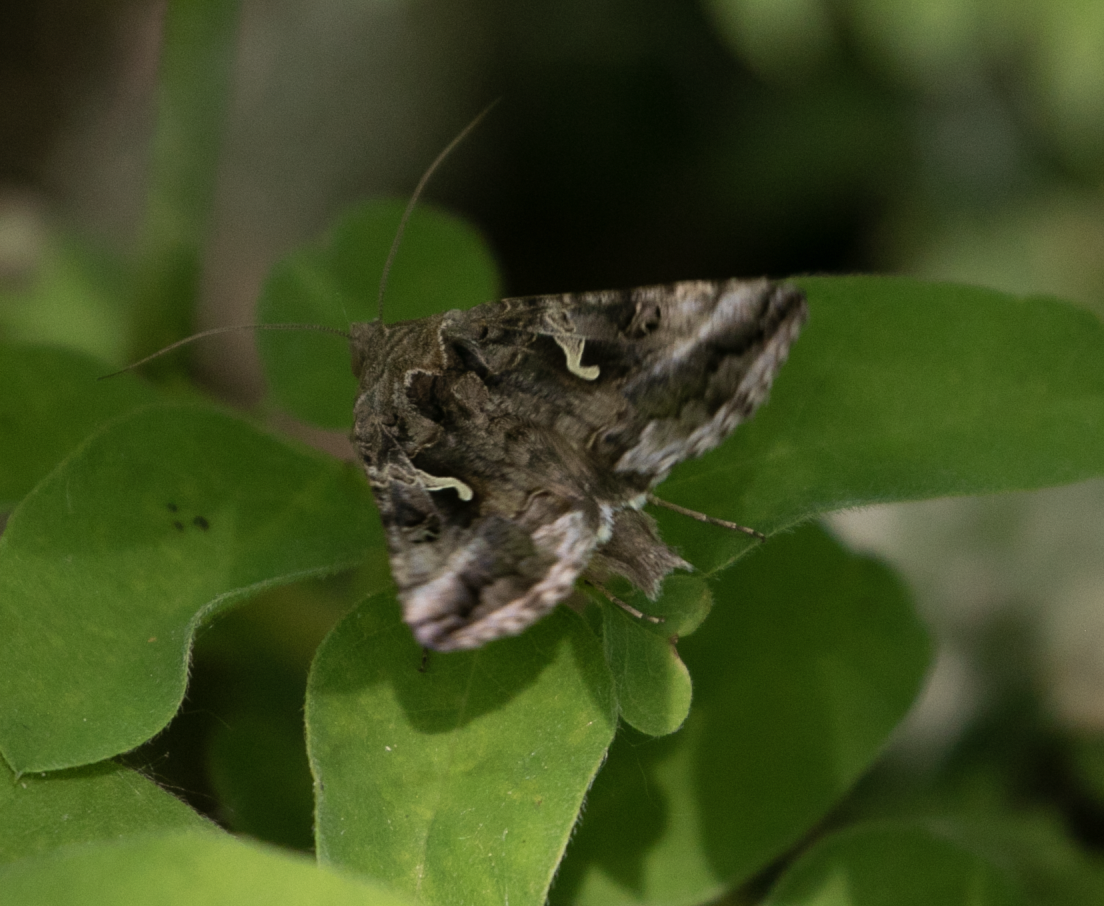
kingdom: Animalia
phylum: Arthropoda
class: Insecta
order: Lepidoptera
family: Noctuidae
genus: Autographa
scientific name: Autographa gamma
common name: Silver y
